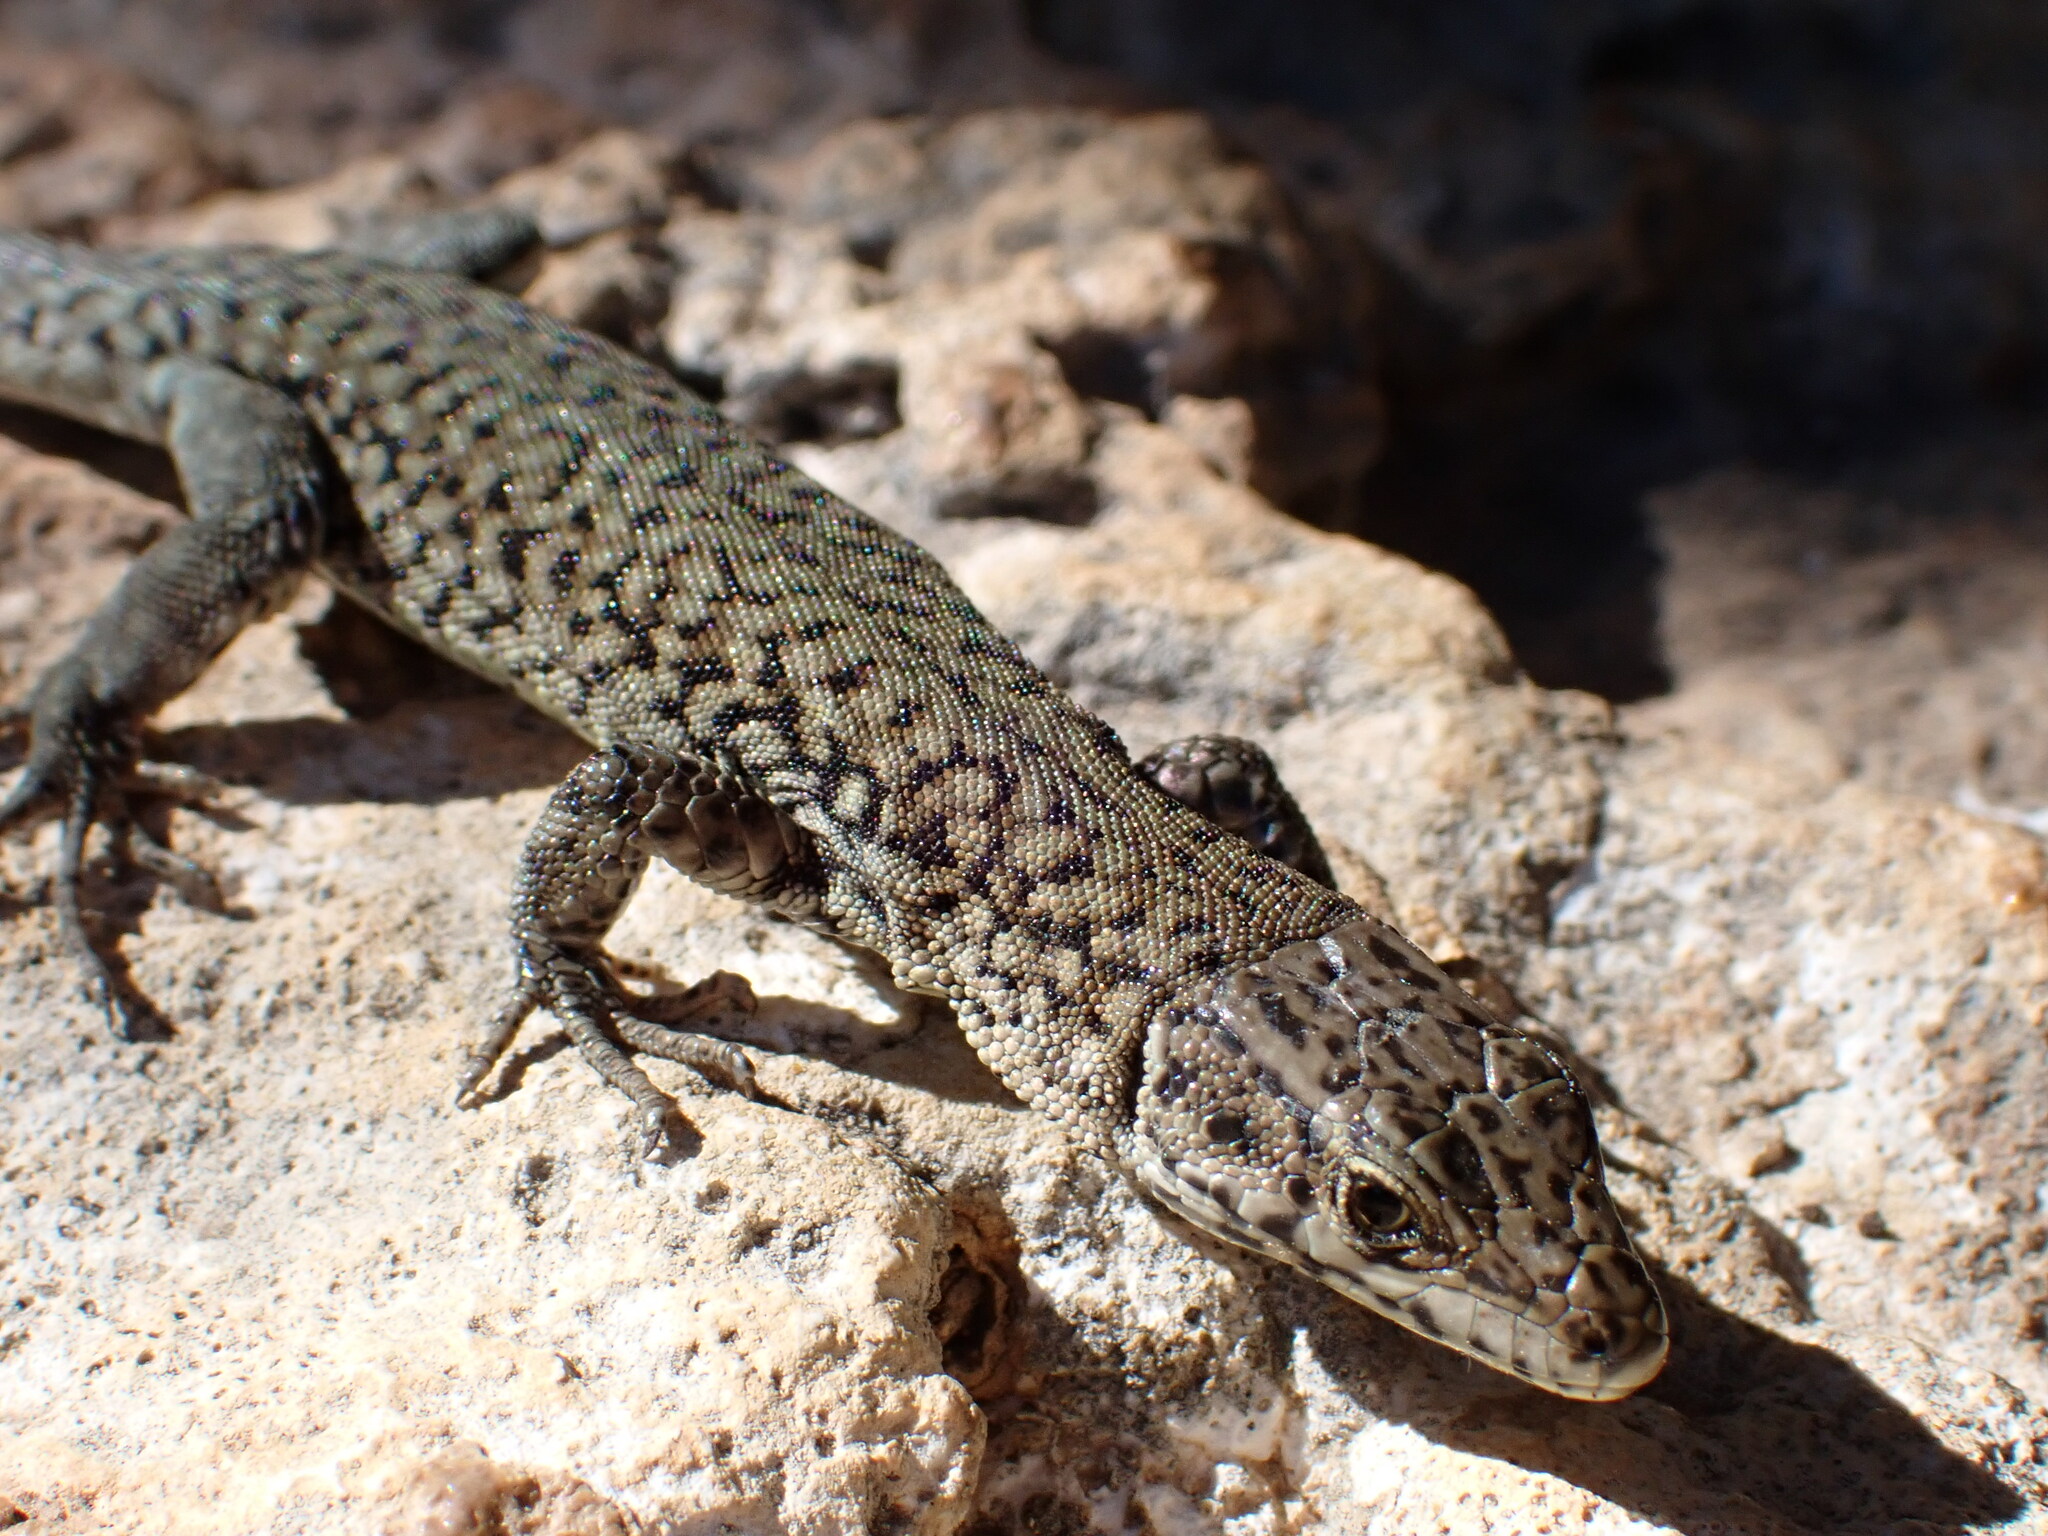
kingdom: Animalia
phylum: Chordata
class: Squamata
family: Lacertidae
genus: Podarcis
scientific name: Podarcis liolepis
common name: Catalonian wall lizard
